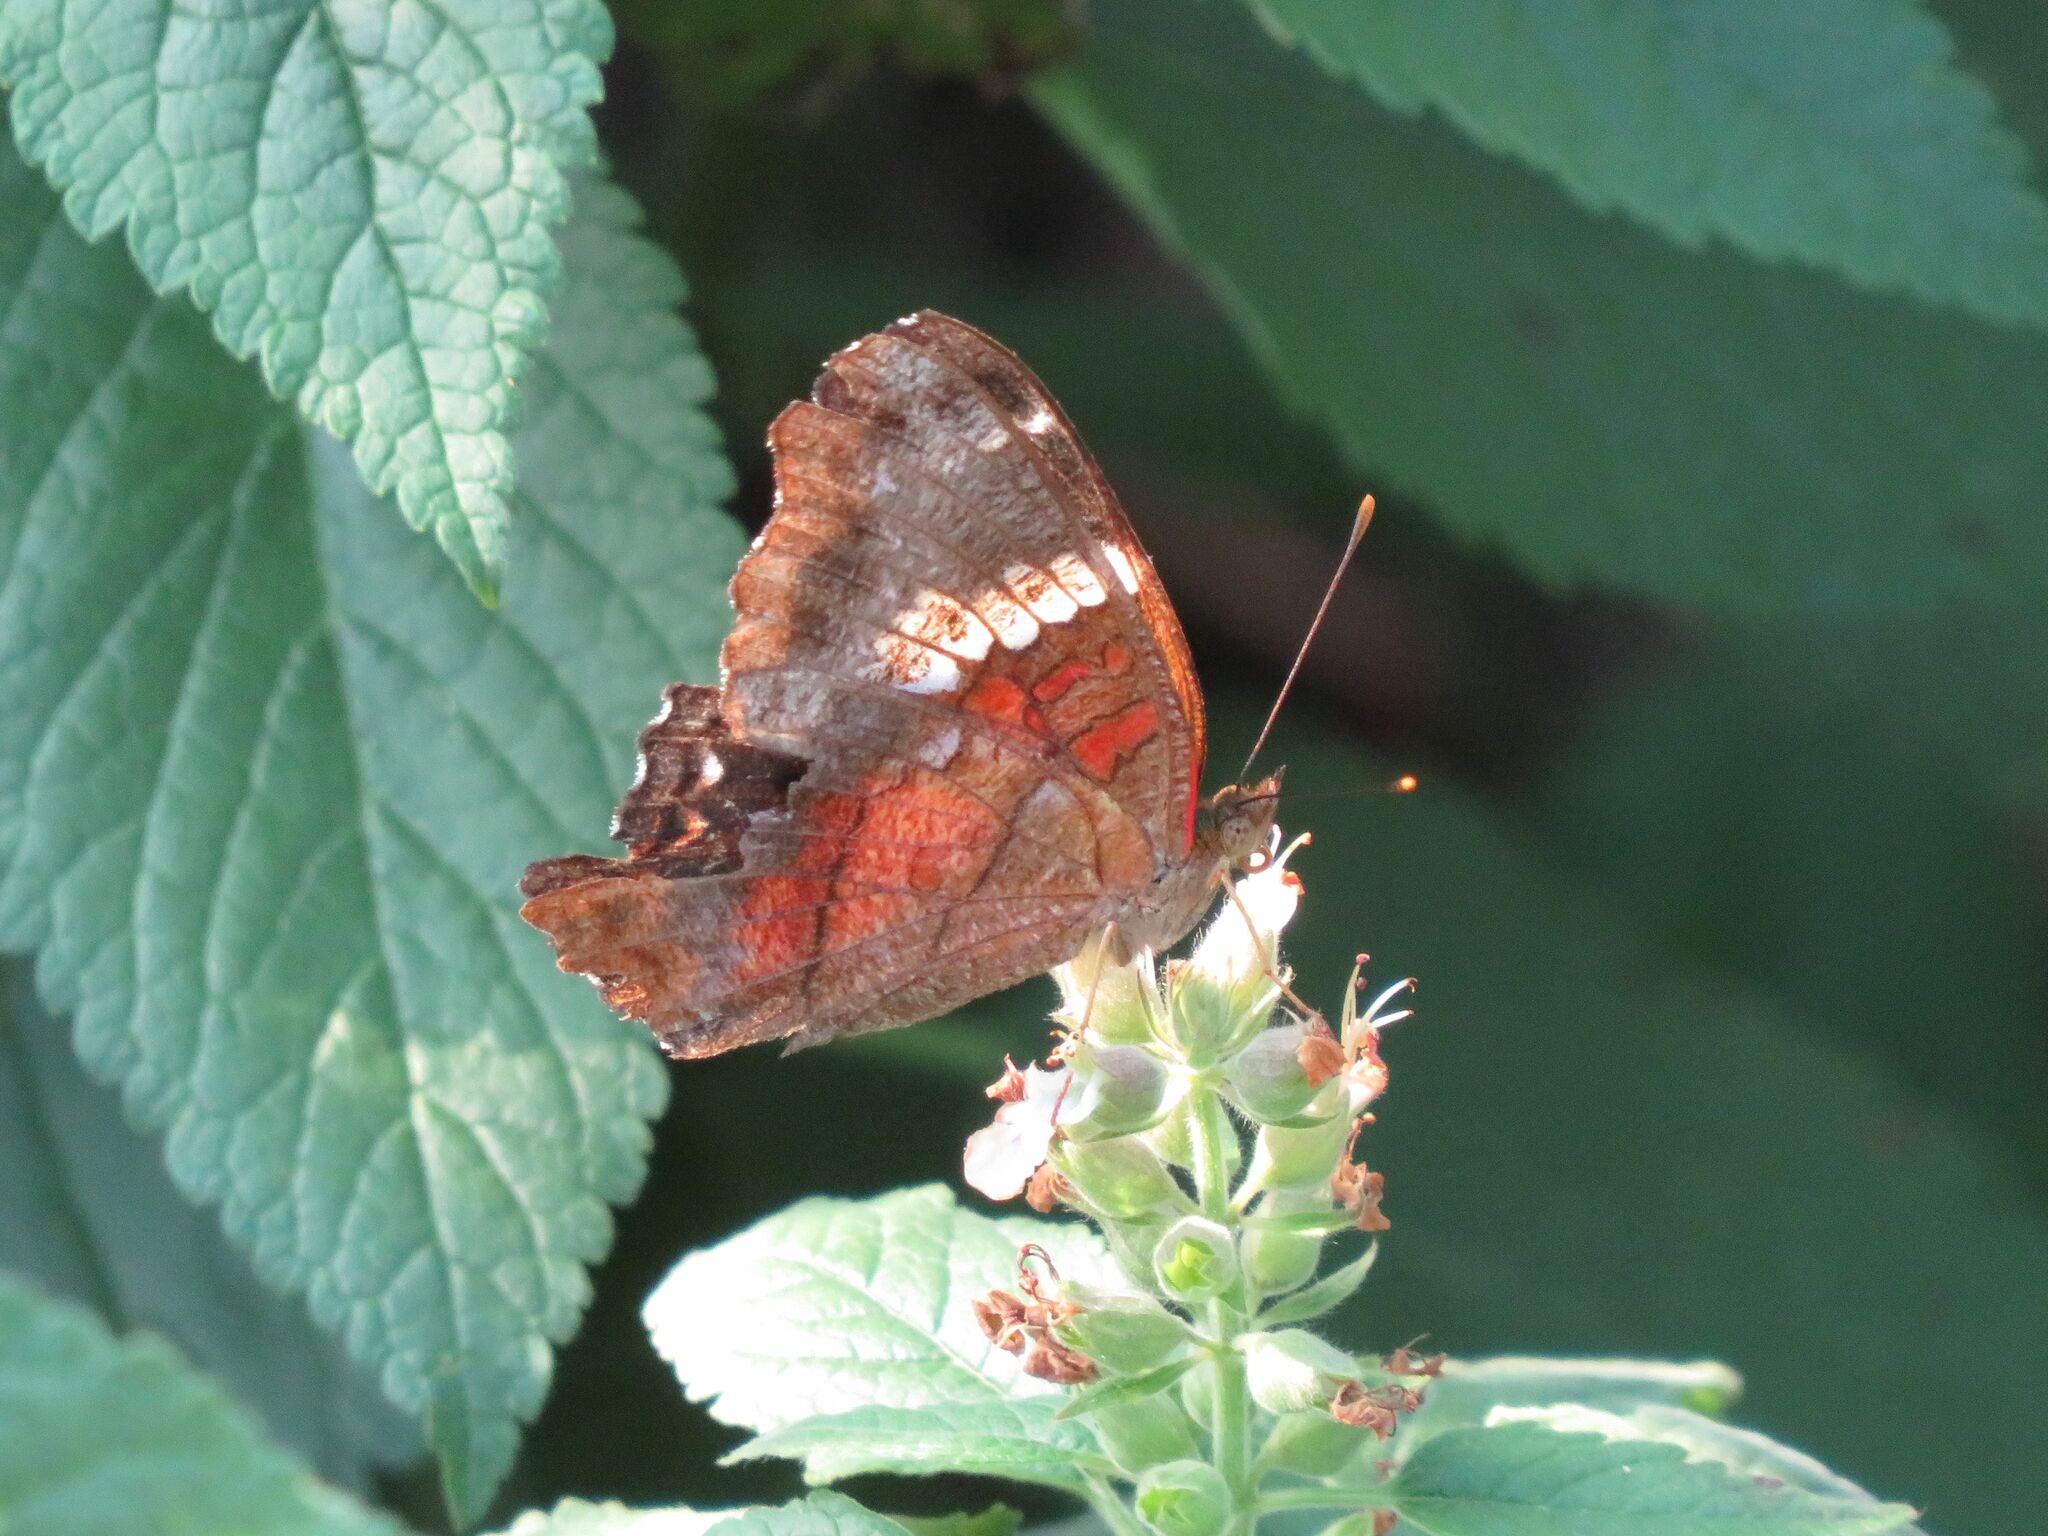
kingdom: Animalia
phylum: Arthropoda
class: Insecta
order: Lepidoptera
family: Nymphalidae
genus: Anartia
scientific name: Anartia amathea
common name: Red peacock
